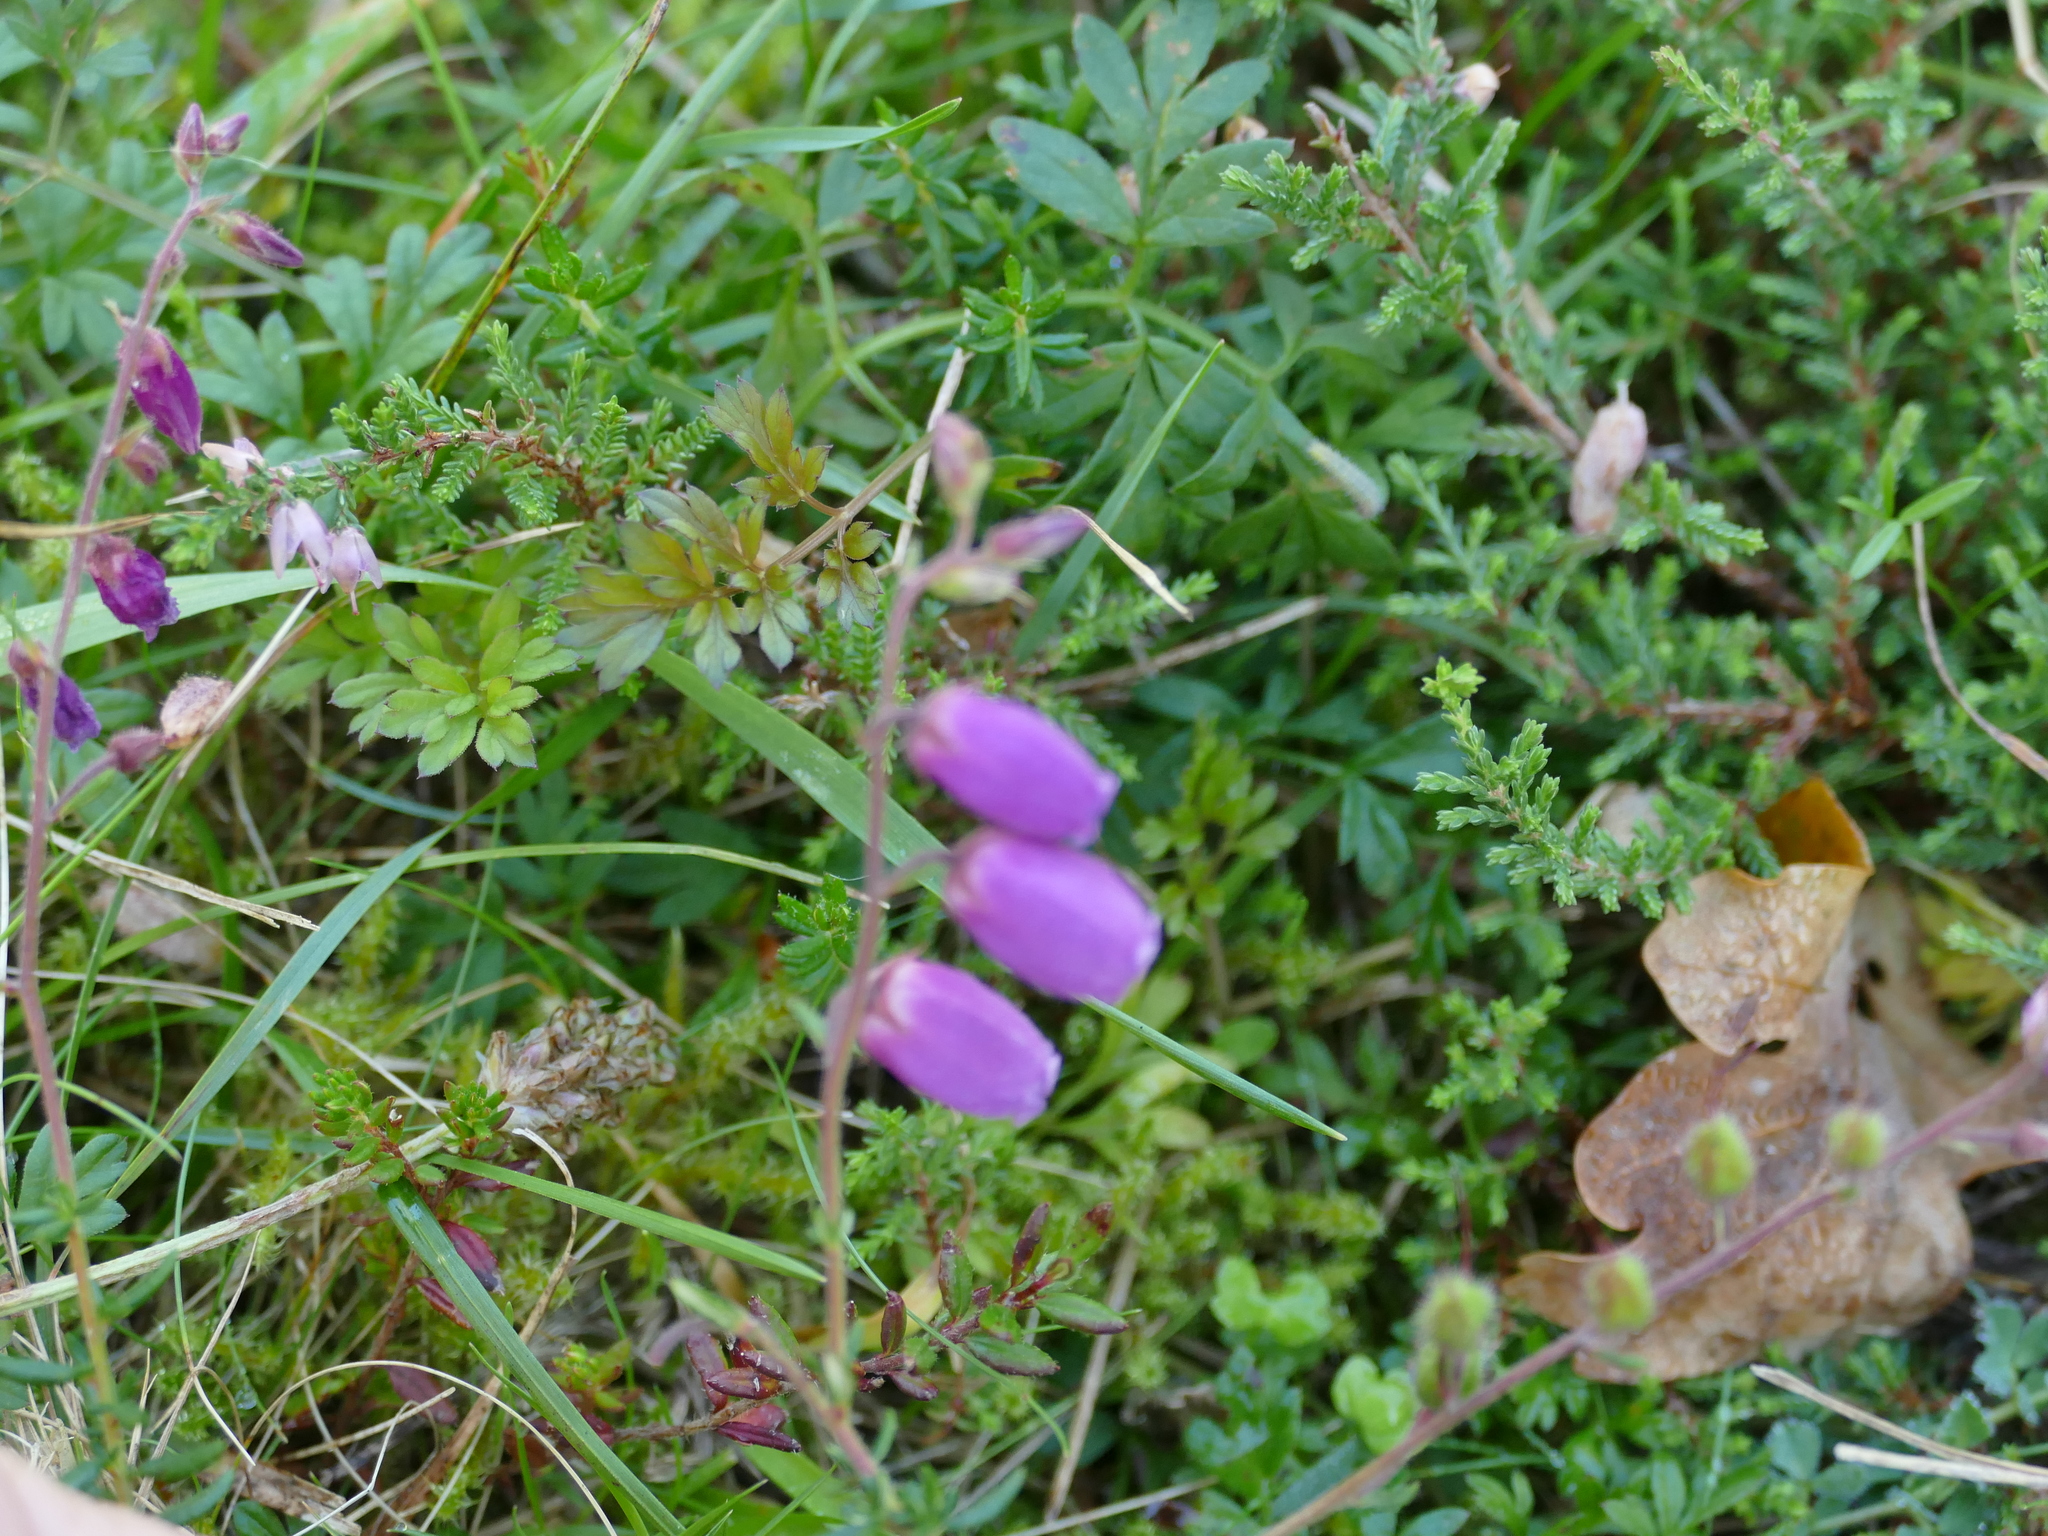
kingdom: Plantae
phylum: Tracheophyta
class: Magnoliopsida
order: Ericales
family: Ericaceae
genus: Daboecia
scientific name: Daboecia cantabrica
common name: St. dabeoc's-heath
